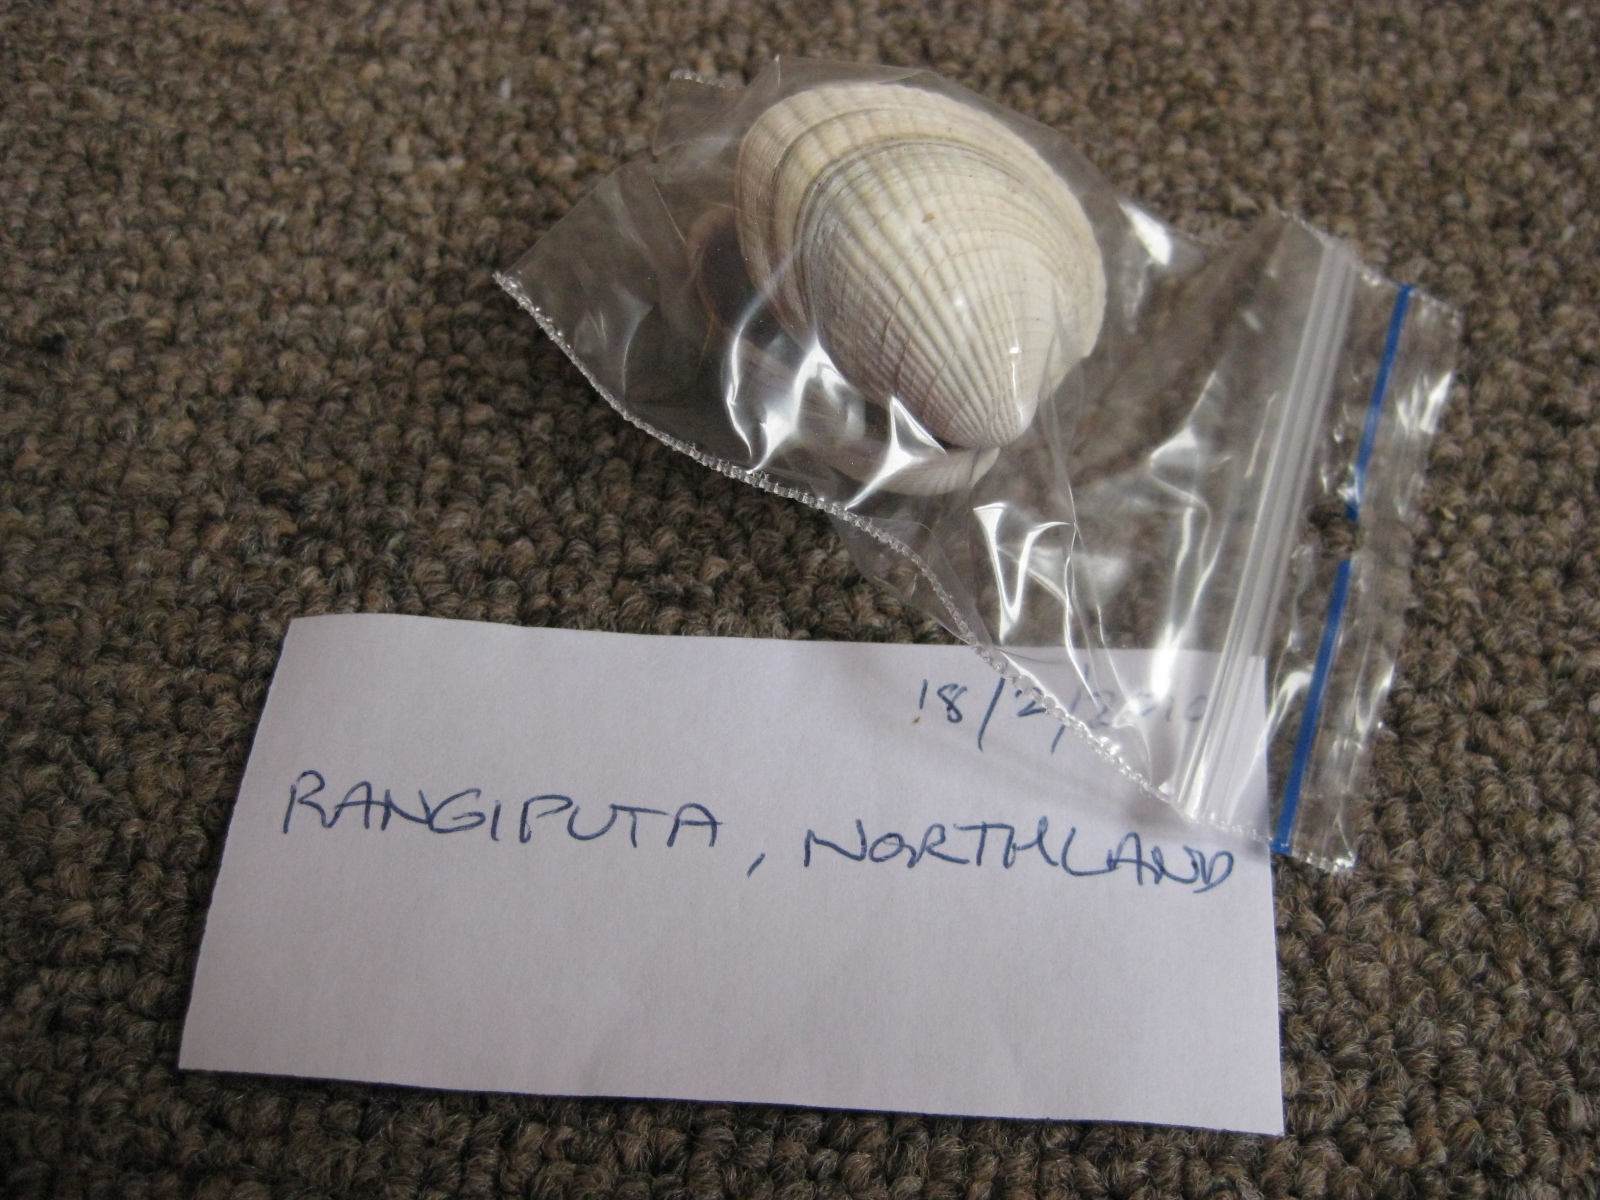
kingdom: Animalia
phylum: Mollusca
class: Bivalvia
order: Venerida
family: Veneridae
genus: Austrovenus
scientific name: Austrovenus stutchburyi
